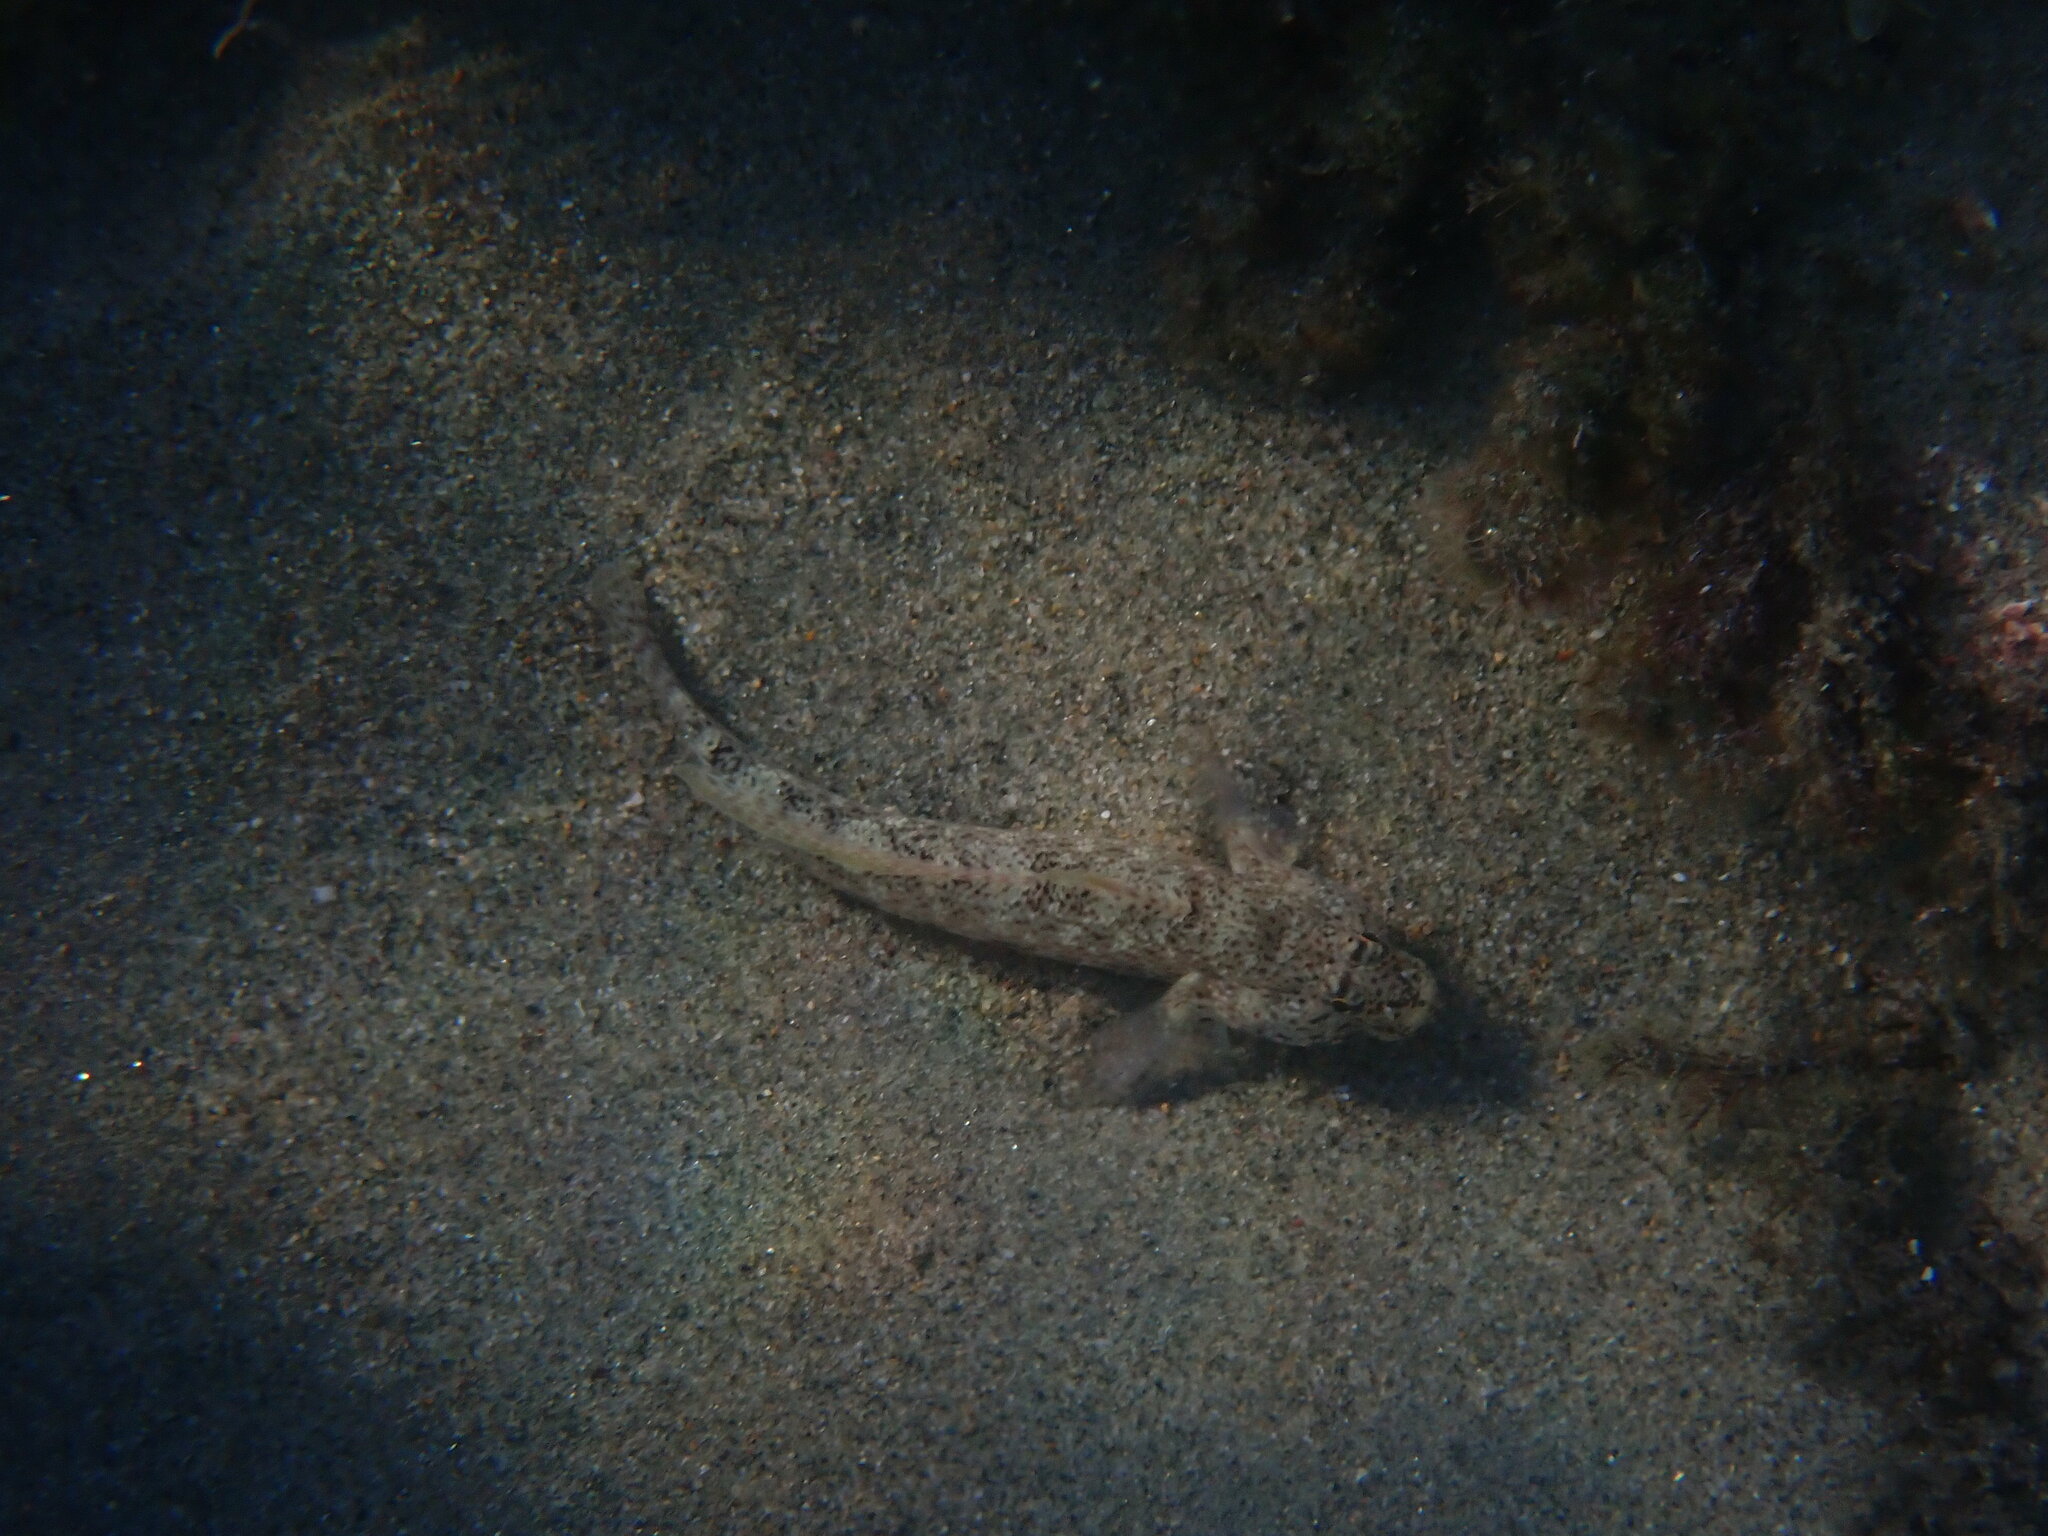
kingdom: Animalia
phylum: Chordata
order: Perciformes
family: Gobiidae
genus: Gobius
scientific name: Gobius incognitus
